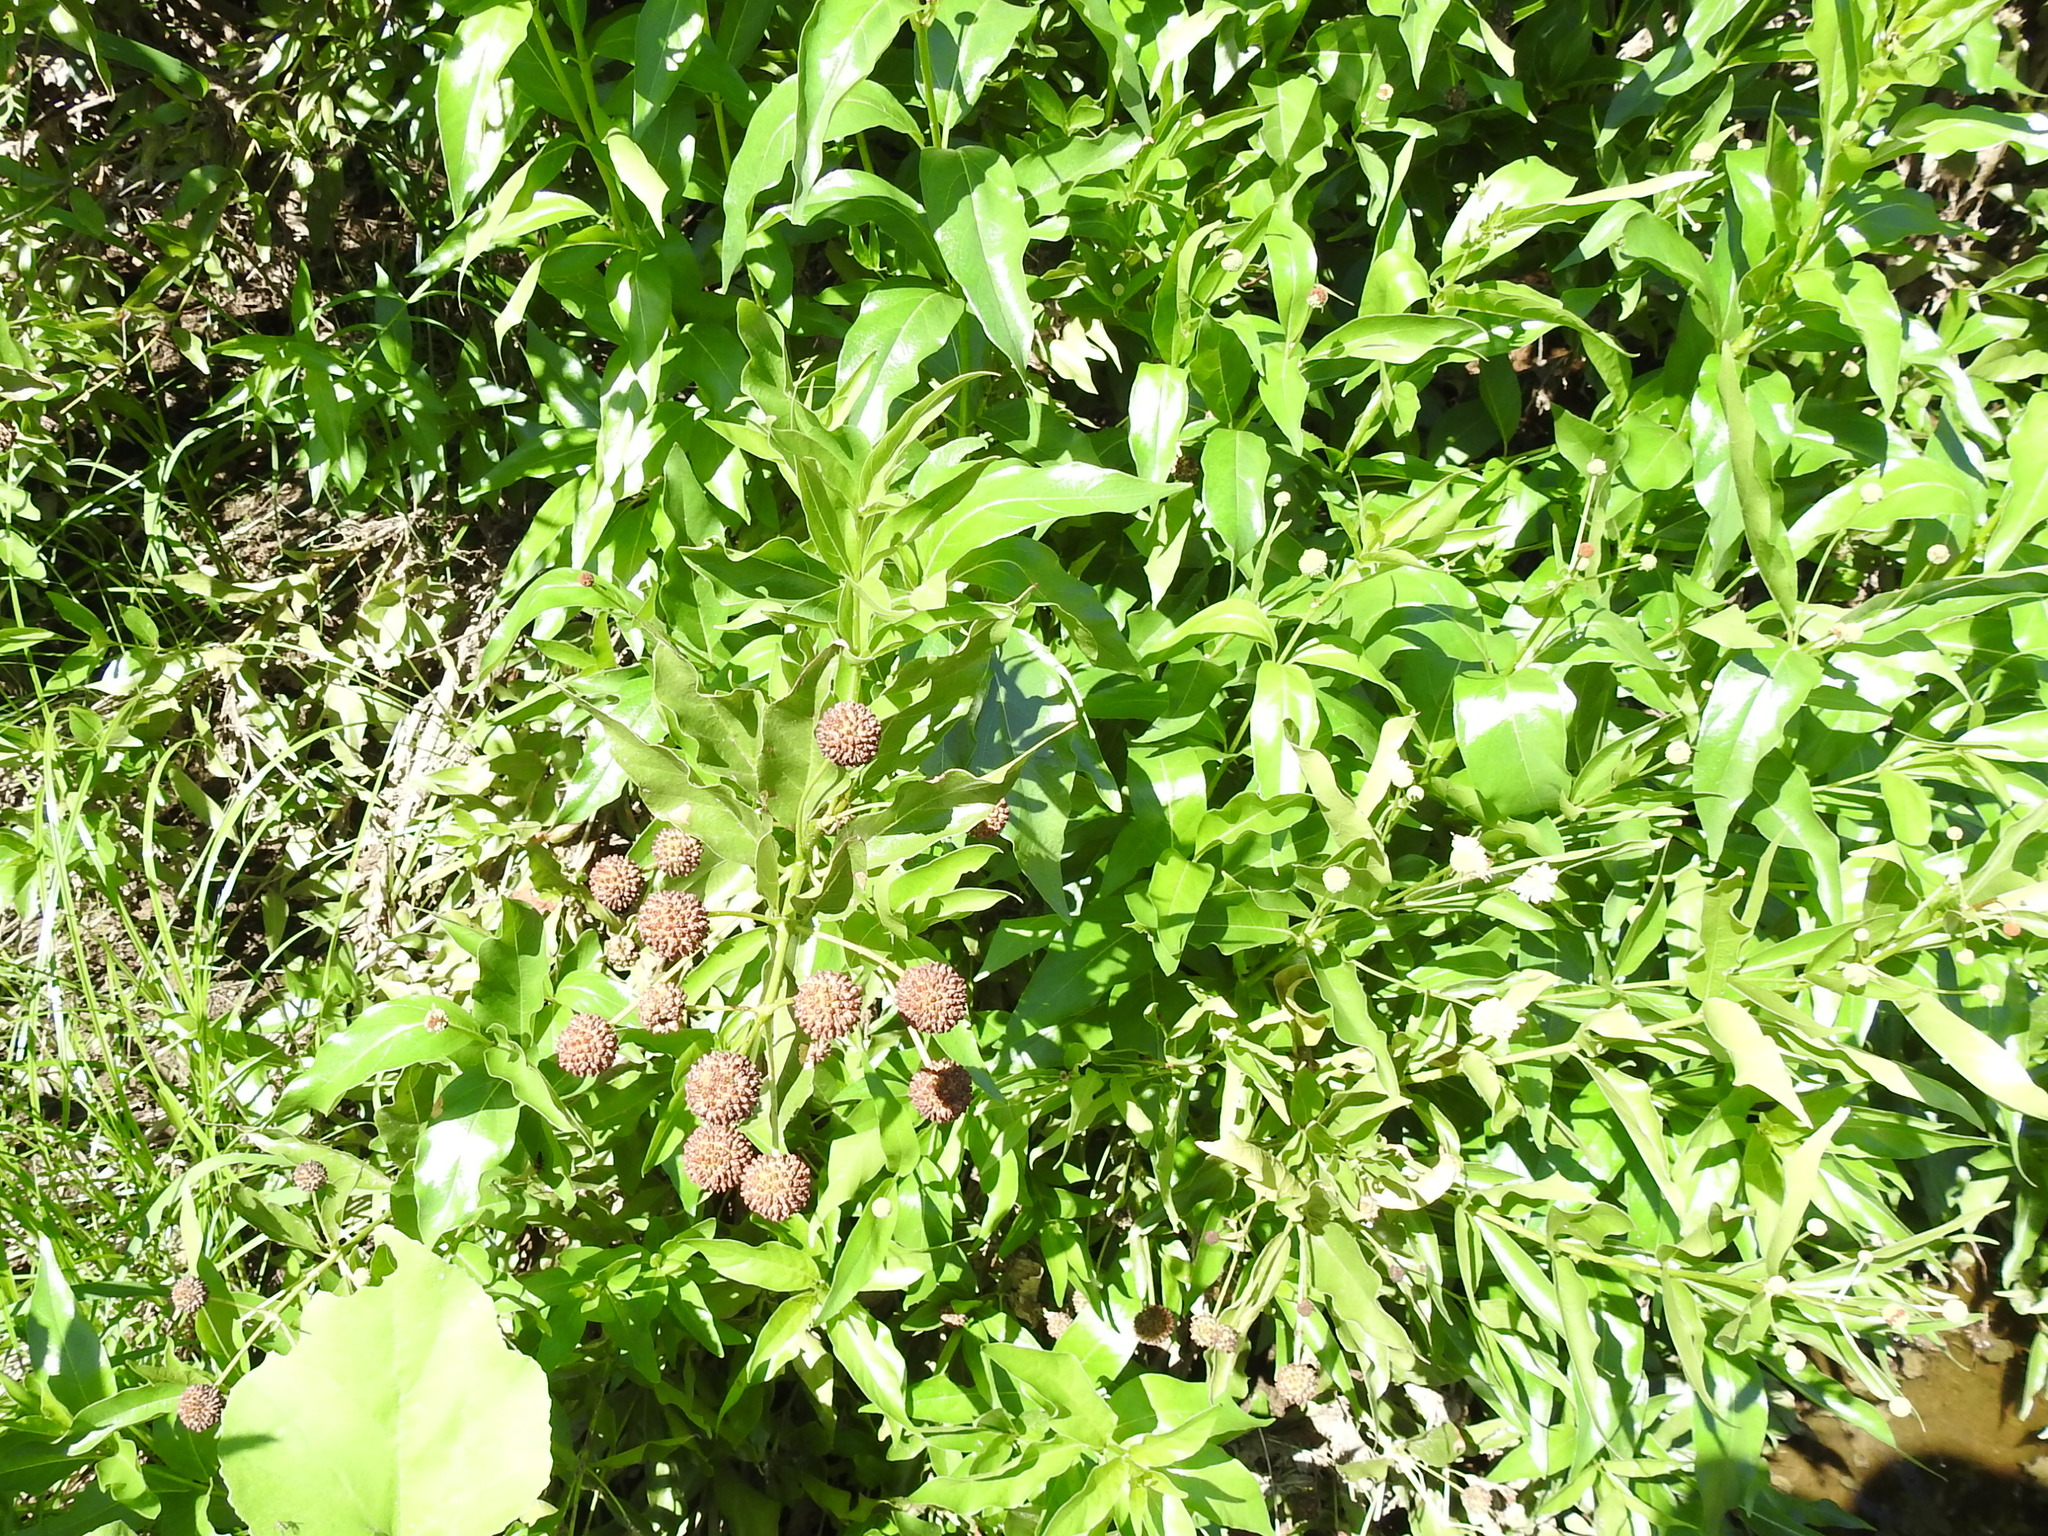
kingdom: Plantae
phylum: Tracheophyta
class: Magnoliopsida
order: Gentianales
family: Rubiaceae
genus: Cephalanthus
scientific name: Cephalanthus occidentalis
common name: Button-willow
